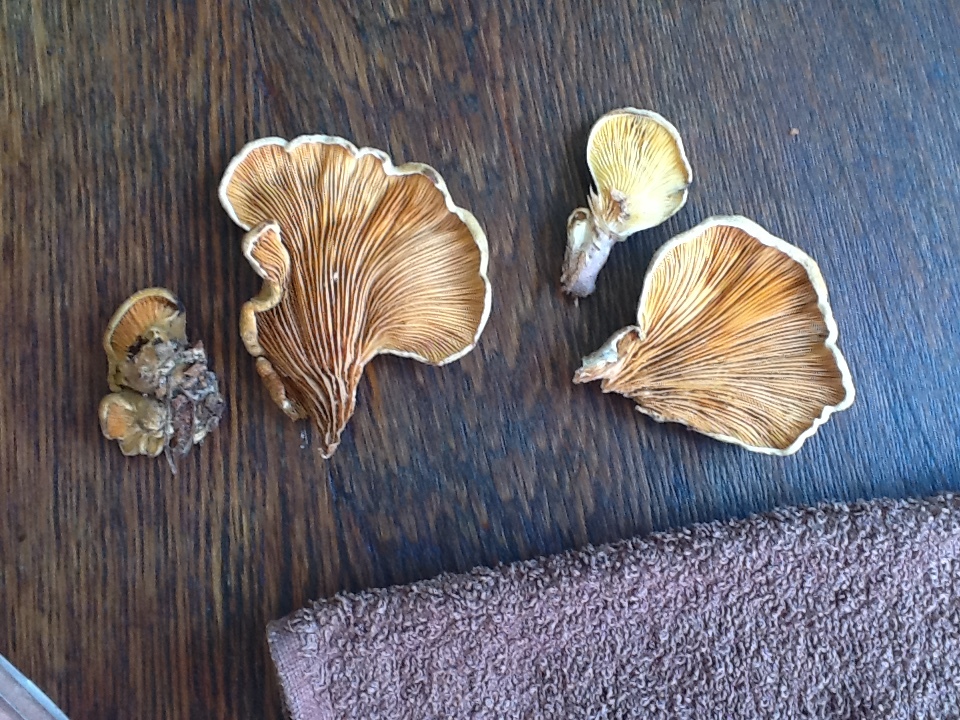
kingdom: Fungi
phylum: Basidiomycota
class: Agaricomycetes
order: Boletales
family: Tapinellaceae
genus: Tapinella
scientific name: Tapinella panuoides
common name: Oyster rollrim
